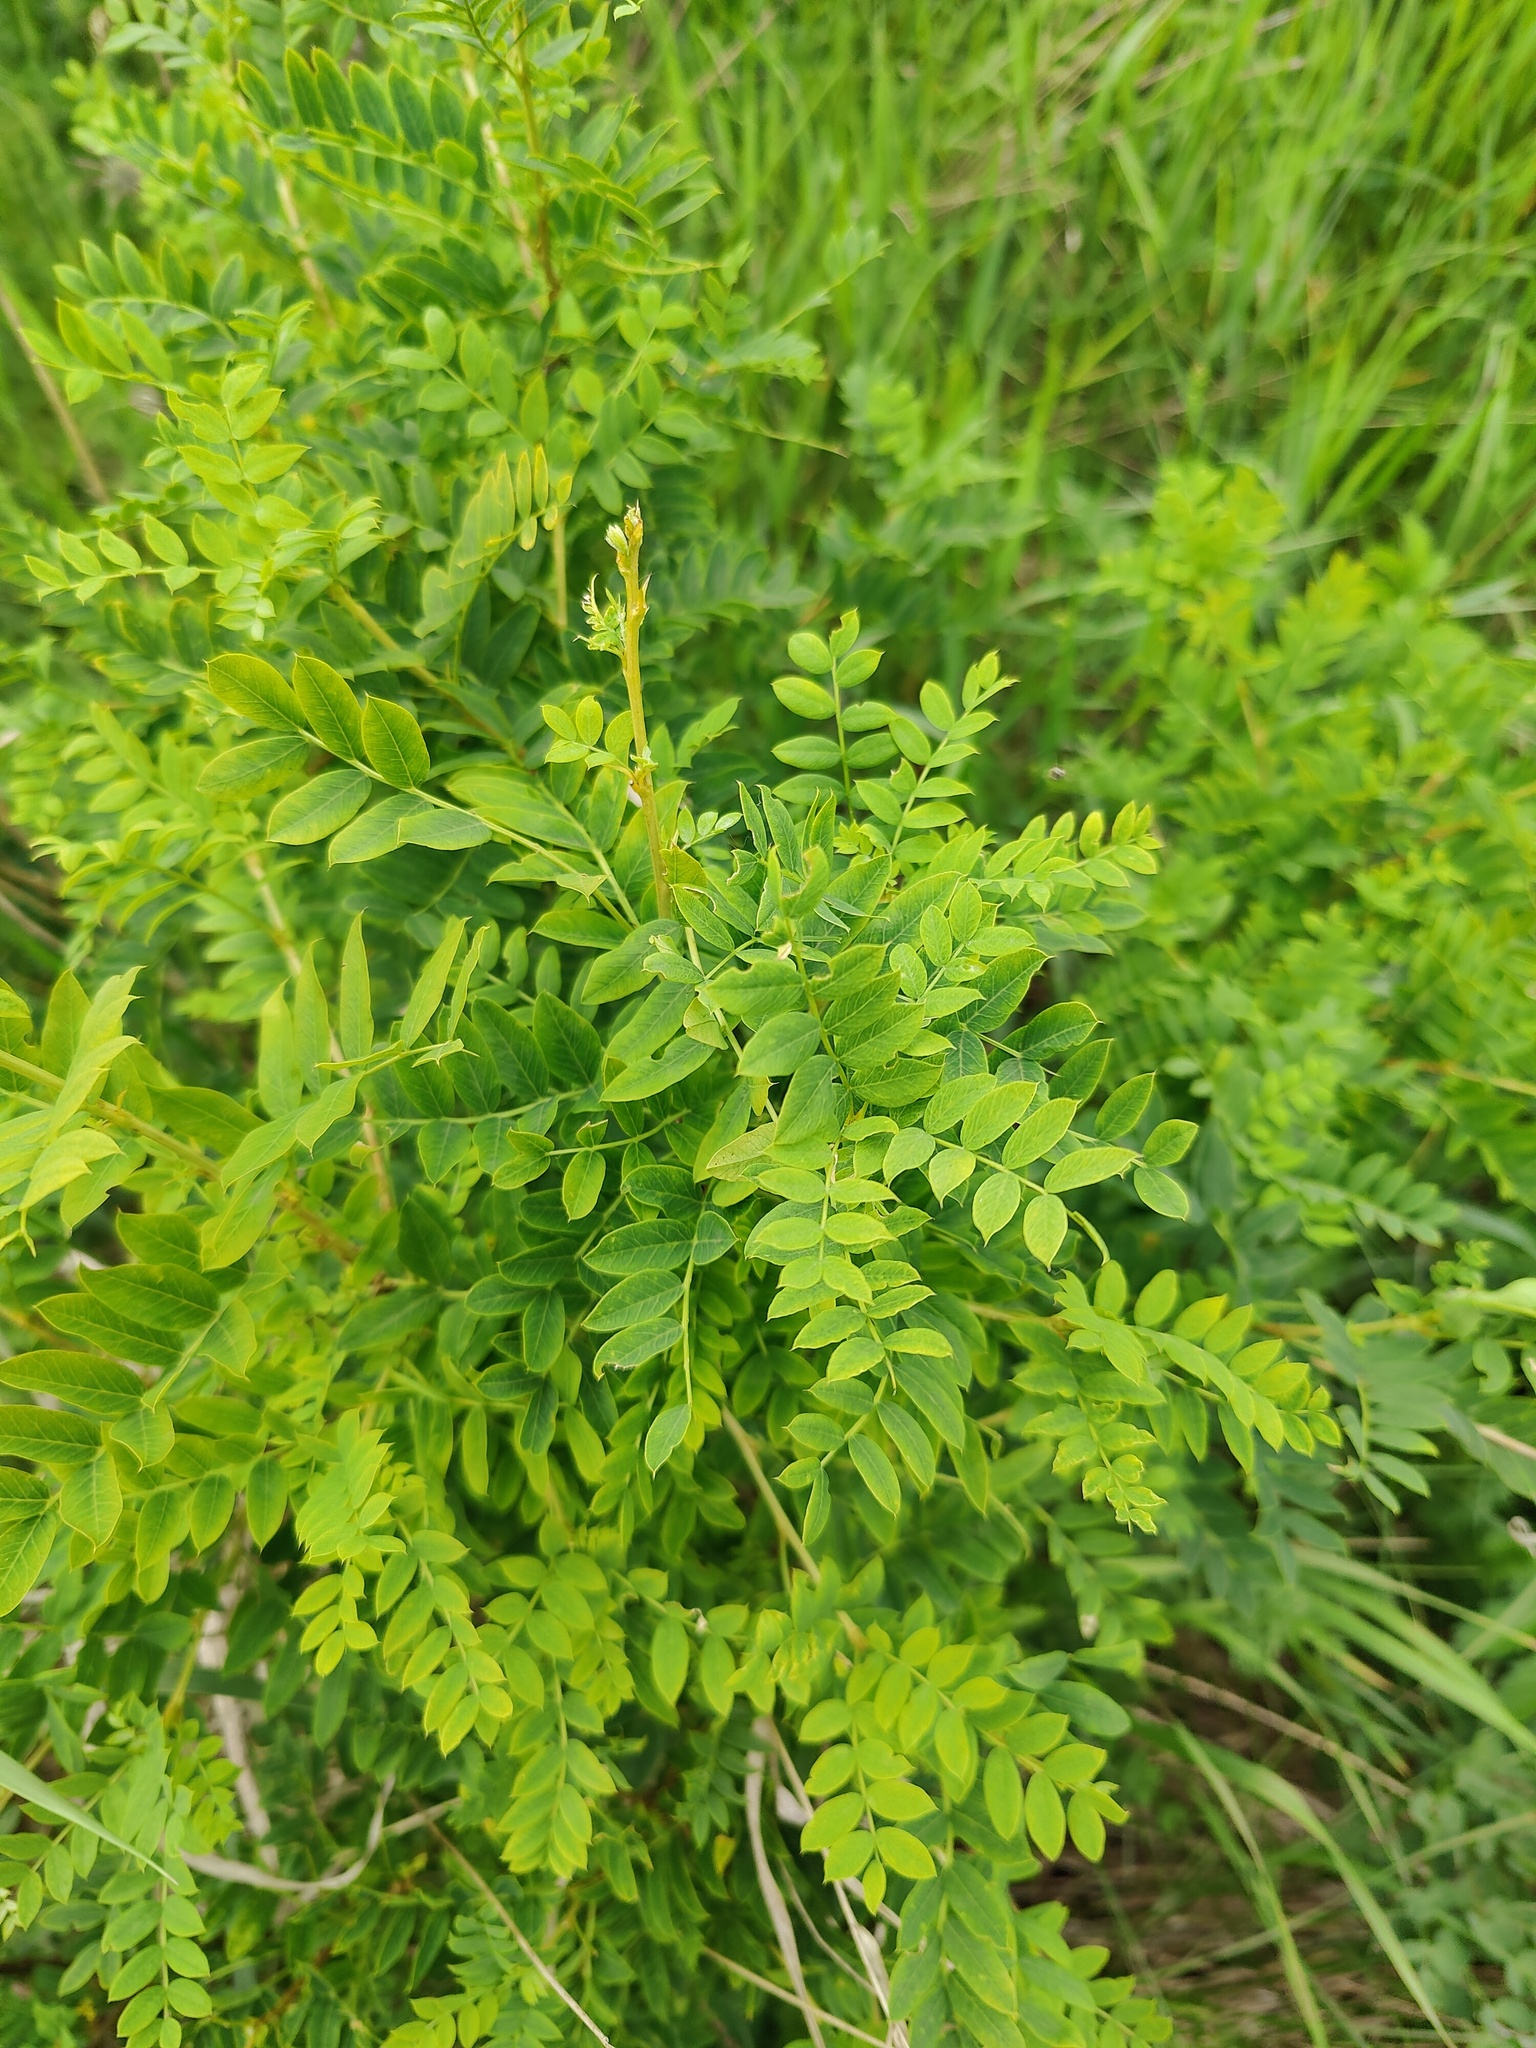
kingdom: Plantae
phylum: Tracheophyta
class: Magnoliopsida
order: Fabales
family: Fabaceae
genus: Caragana
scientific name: Caragana arborescens
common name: Siberian peashrub
